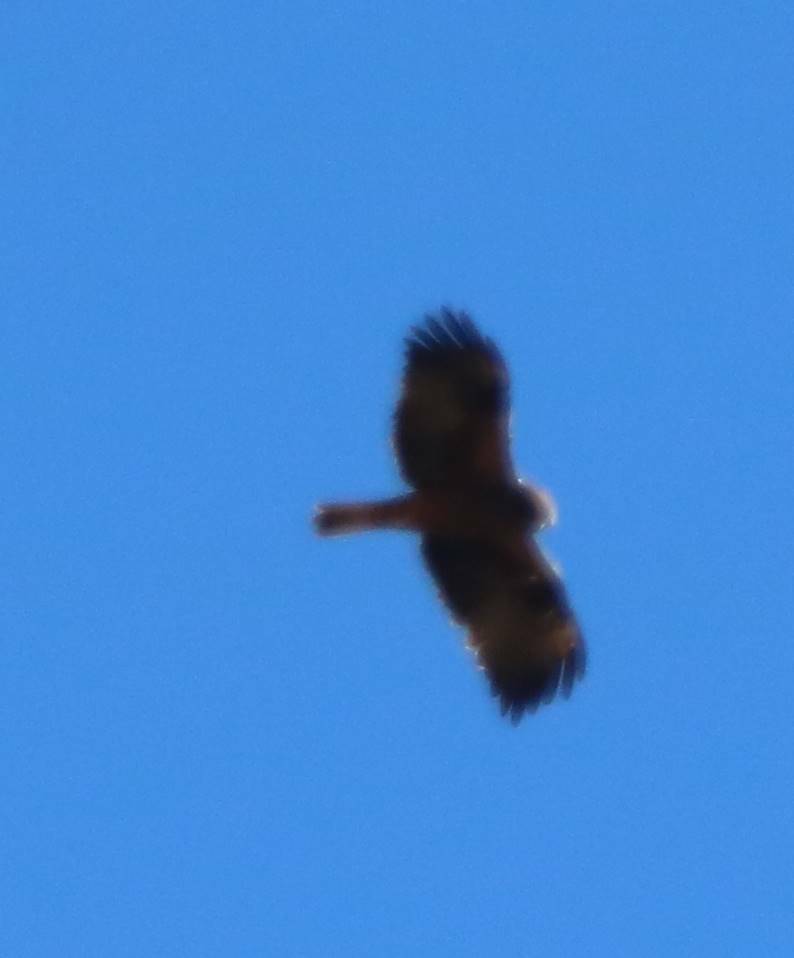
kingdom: Animalia
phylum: Chordata
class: Aves
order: Accipitriformes
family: Accipitridae
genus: Hieraaetus
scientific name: Hieraaetus pennatus
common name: Booted eagle
